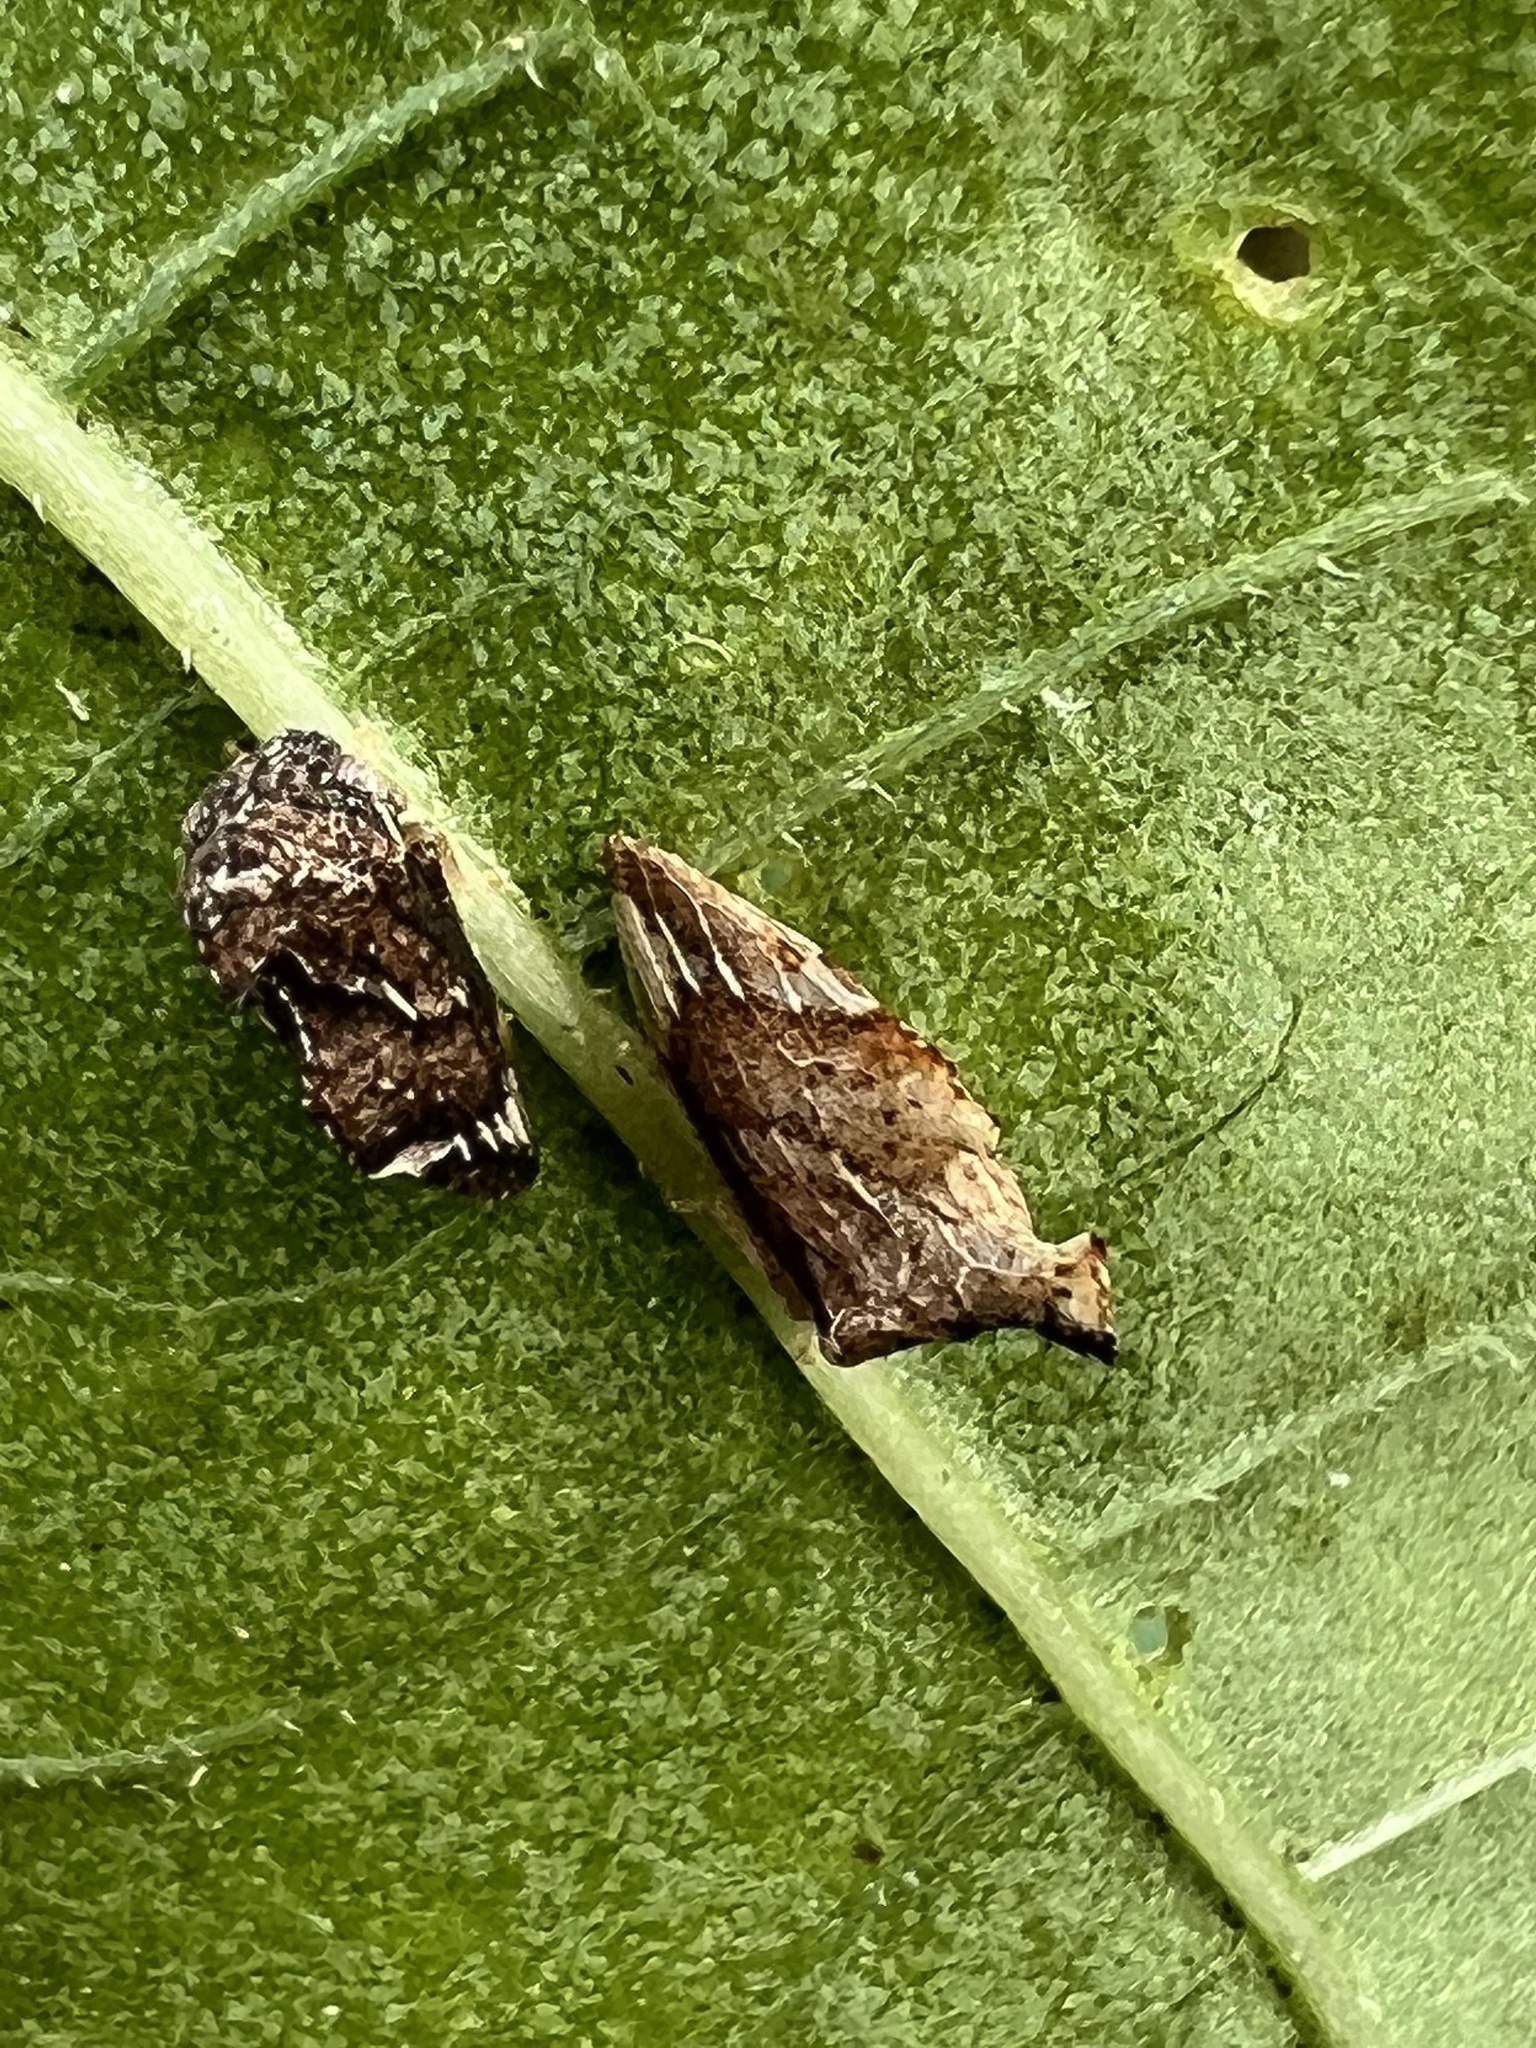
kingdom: Animalia
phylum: Arthropoda
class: Insecta
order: Hemiptera
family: Membracidae
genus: Entylia
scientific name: Entylia carinata
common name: Keeled treehopper
